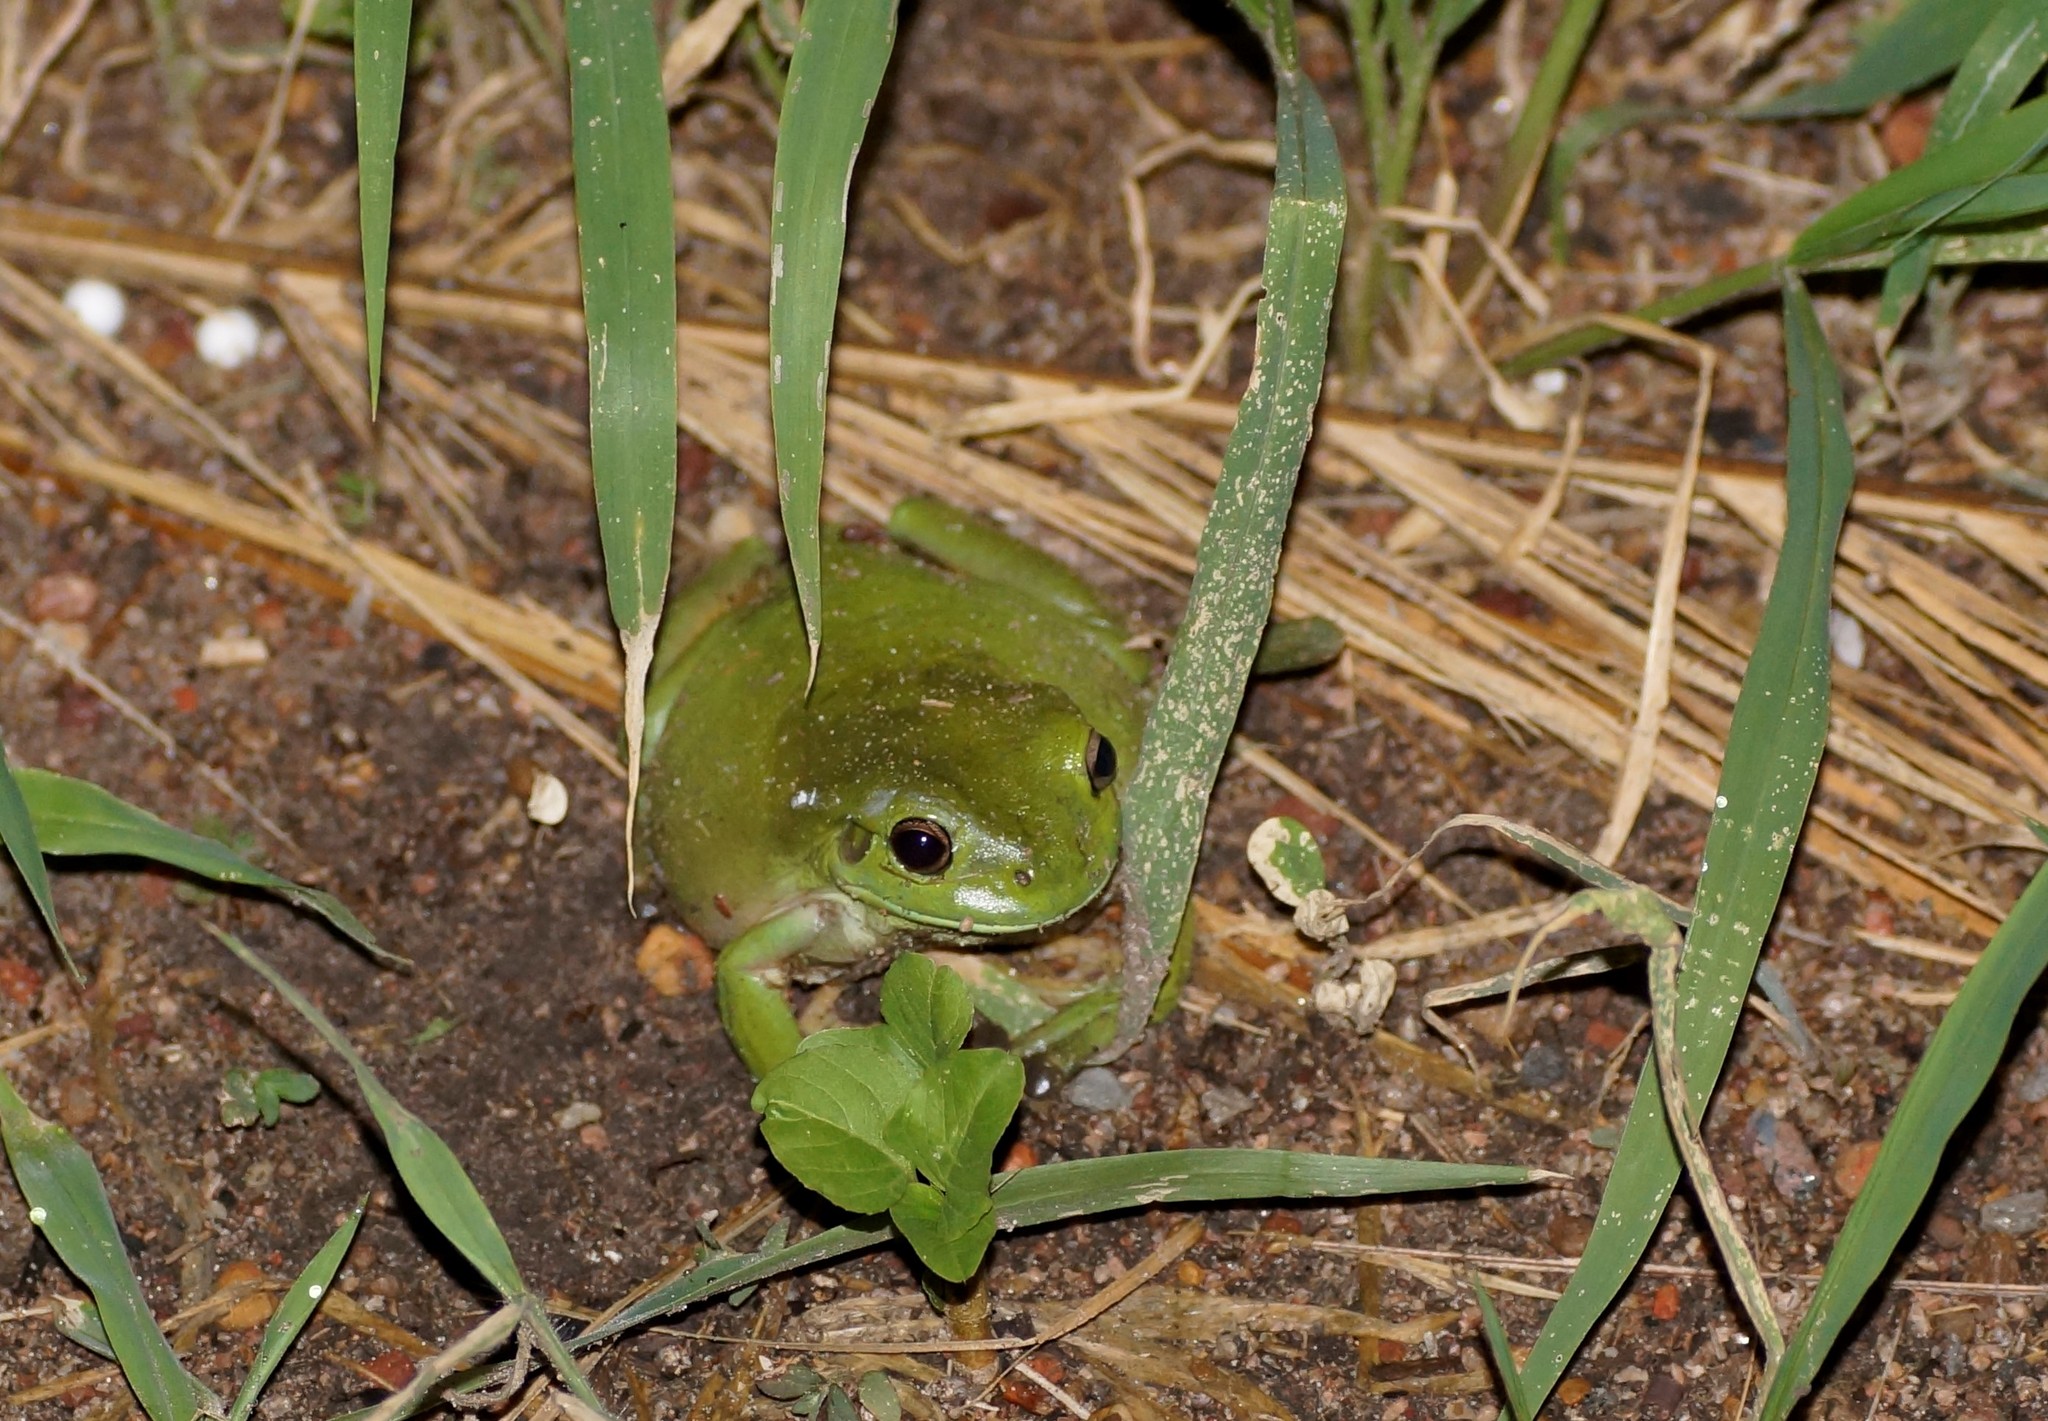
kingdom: Animalia
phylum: Chordata
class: Amphibia
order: Anura
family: Pelodryadidae
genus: Ranoidea
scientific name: Ranoidea caerulea
